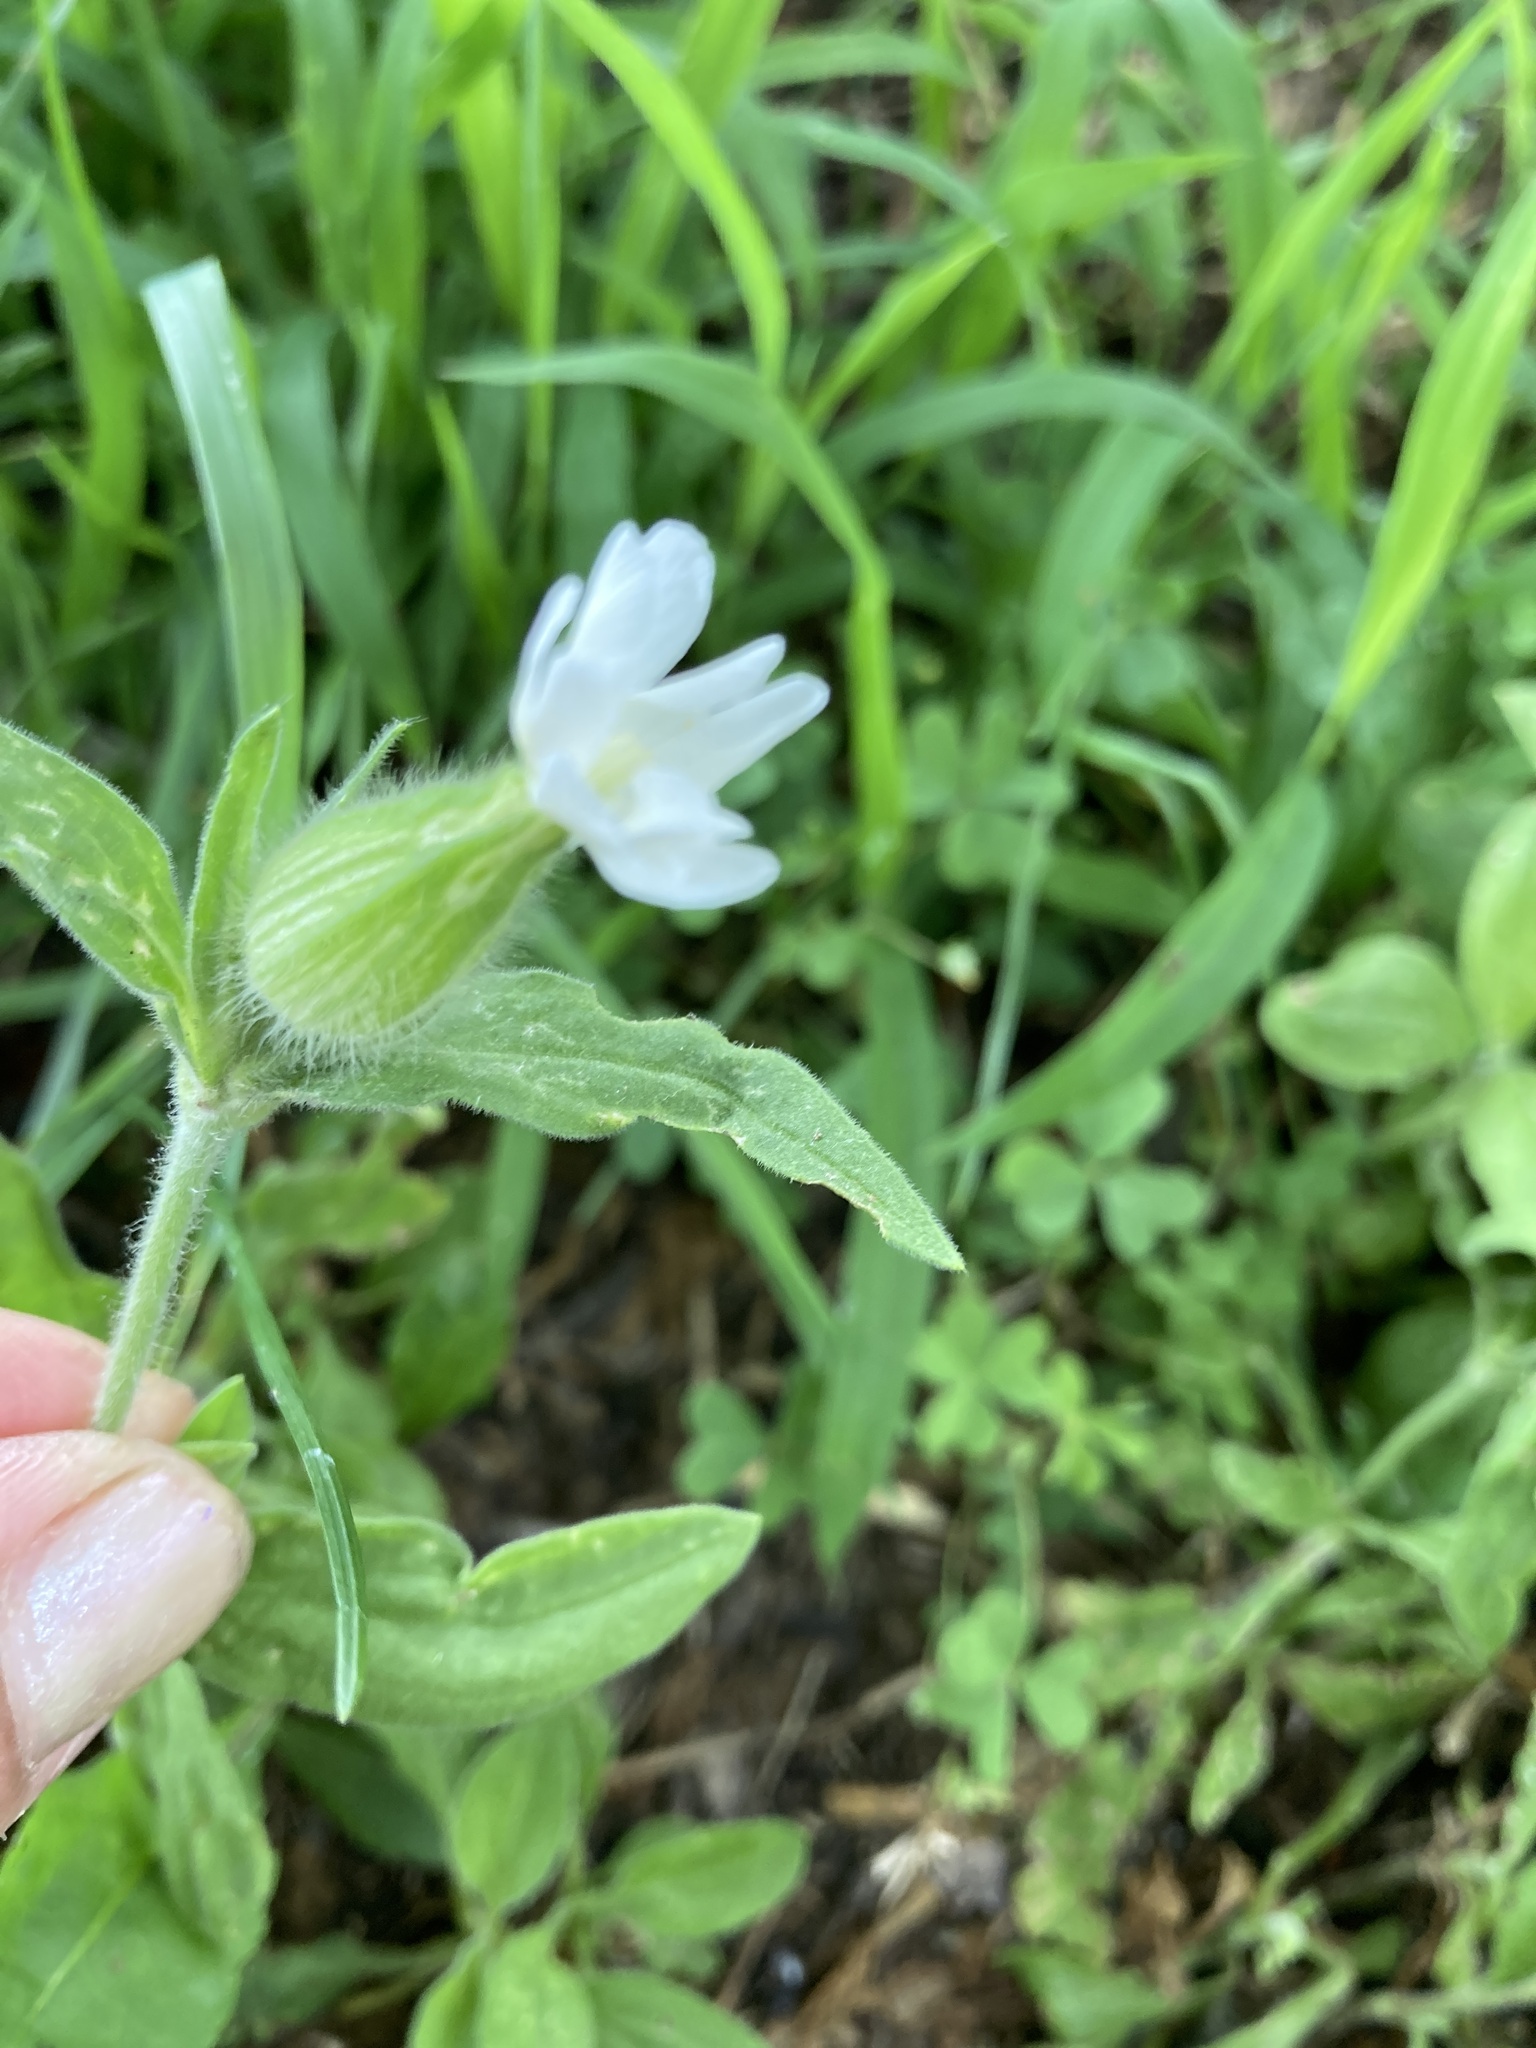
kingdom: Plantae
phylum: Tracheophyta
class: Magnoliopsida
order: Caryophyllales
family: Caryophyllaceae
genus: Silene
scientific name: Silene latifolia
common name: White campion
